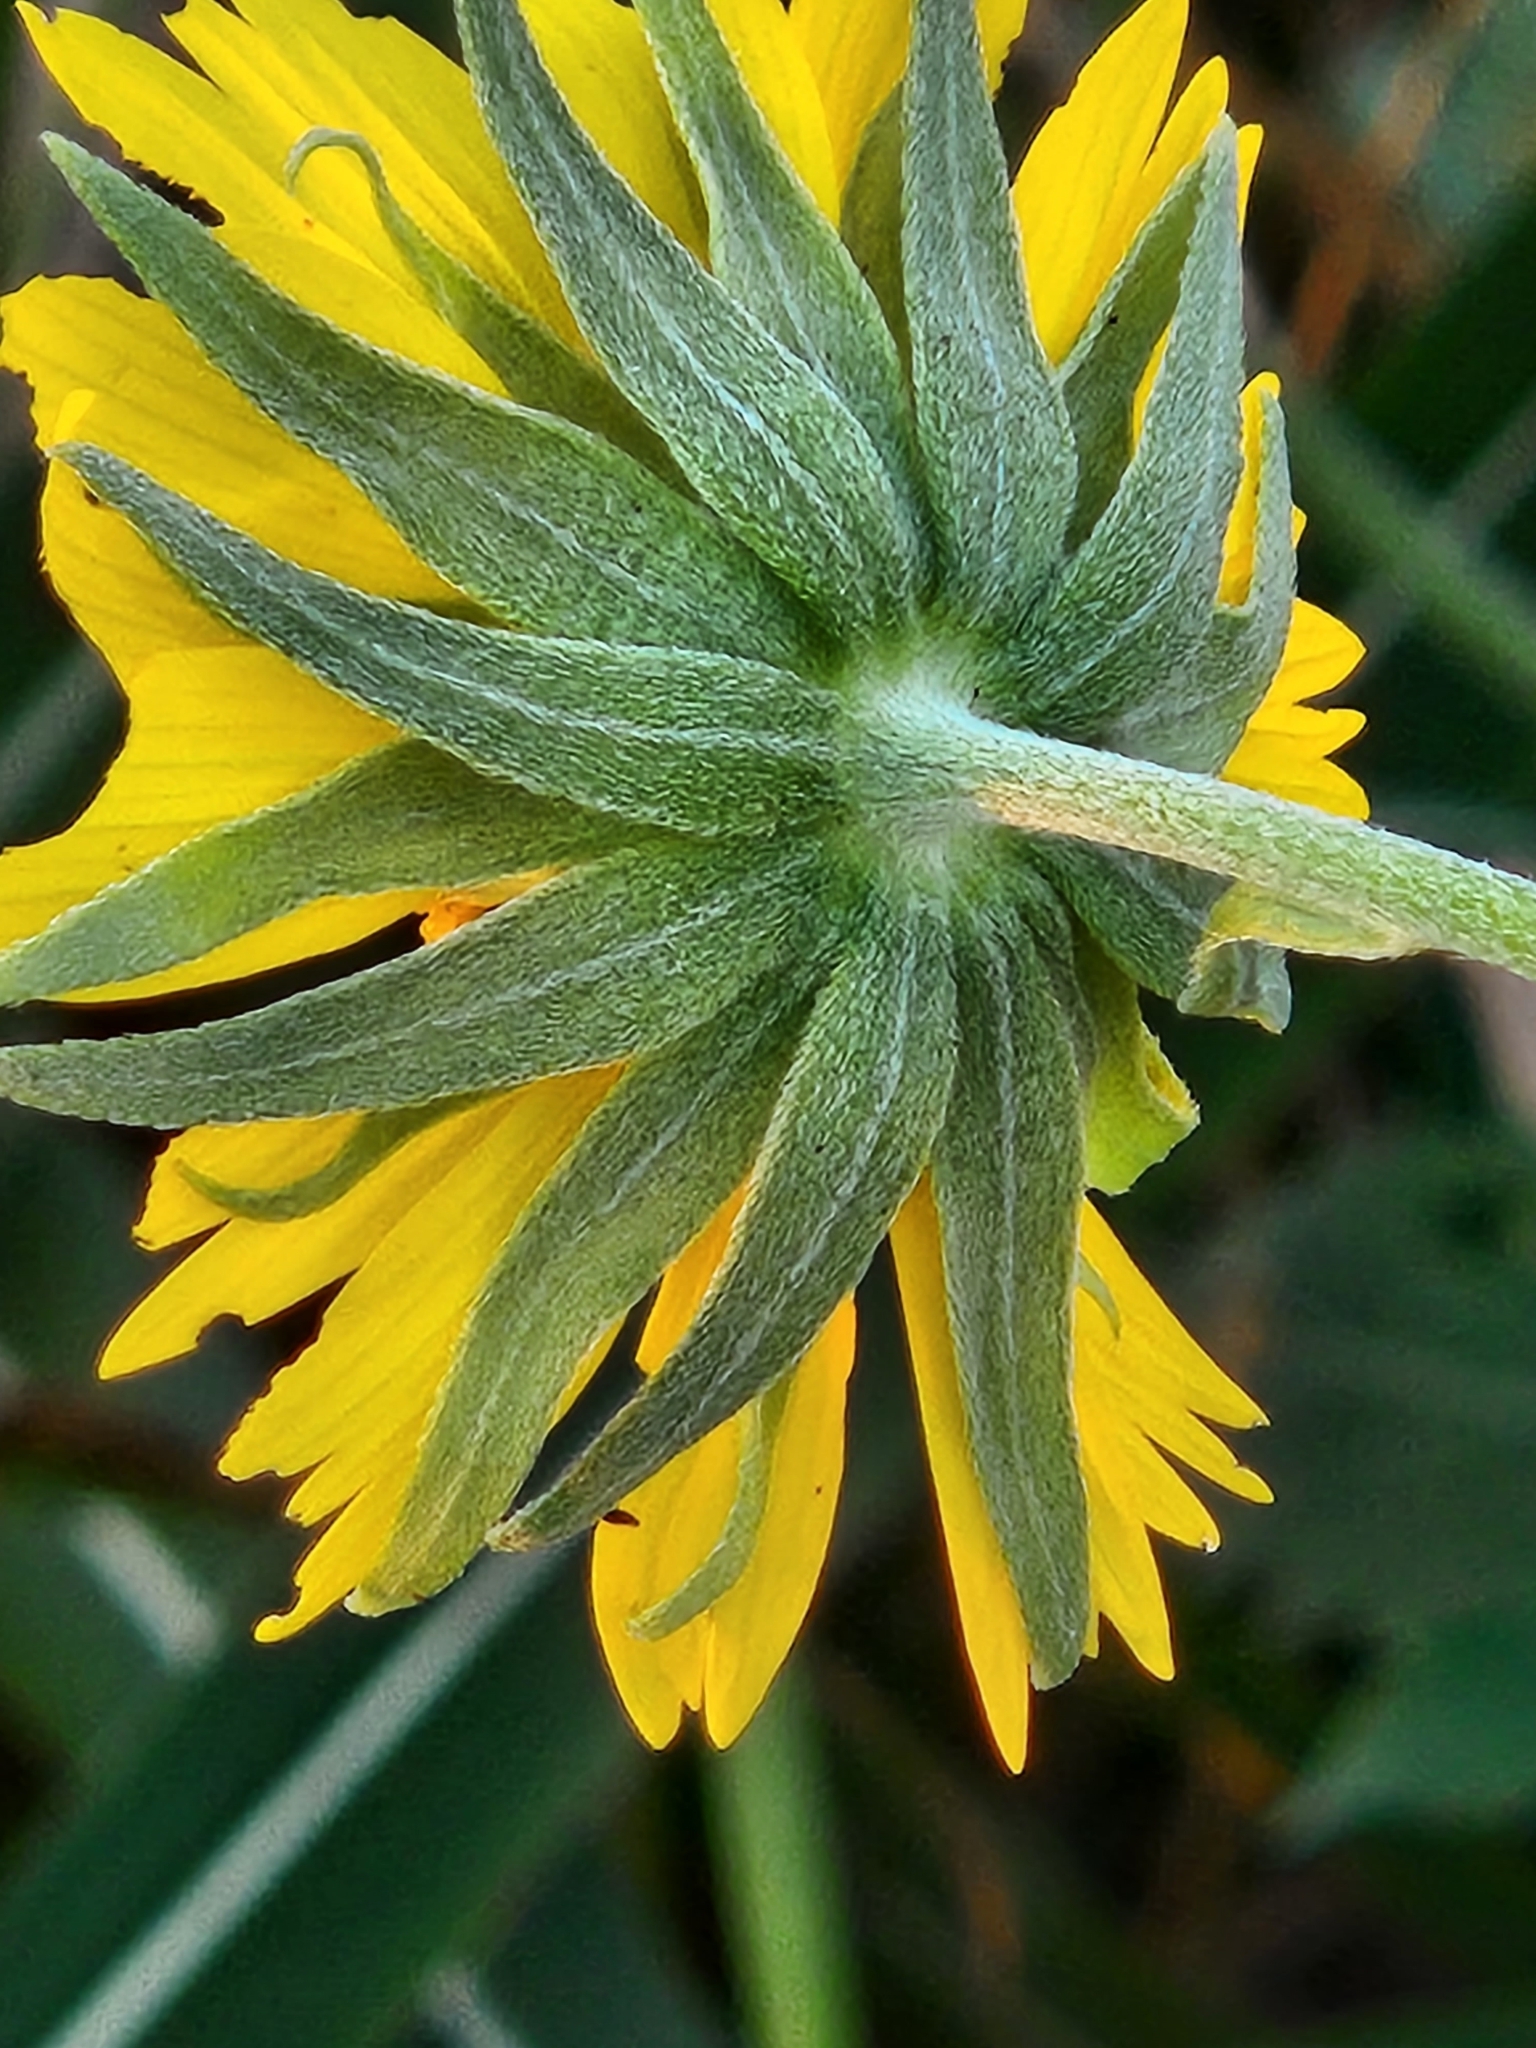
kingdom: Plantae
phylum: Tracheophyta
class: Magnoliopsida
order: Asterales
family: Asteraceae
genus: Verbesina
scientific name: Verbesina encelioides
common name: Golden crownbeard
